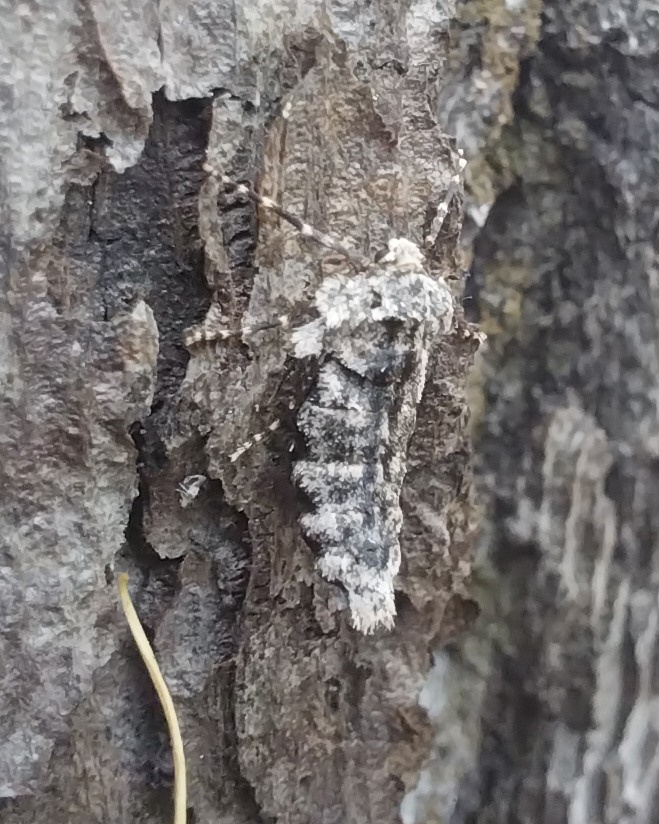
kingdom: Animalia
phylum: Arthropoda
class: Insecta
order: Lepidoptera
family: Geometridae
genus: Larerannis
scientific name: Larerannis orthogrammaria
